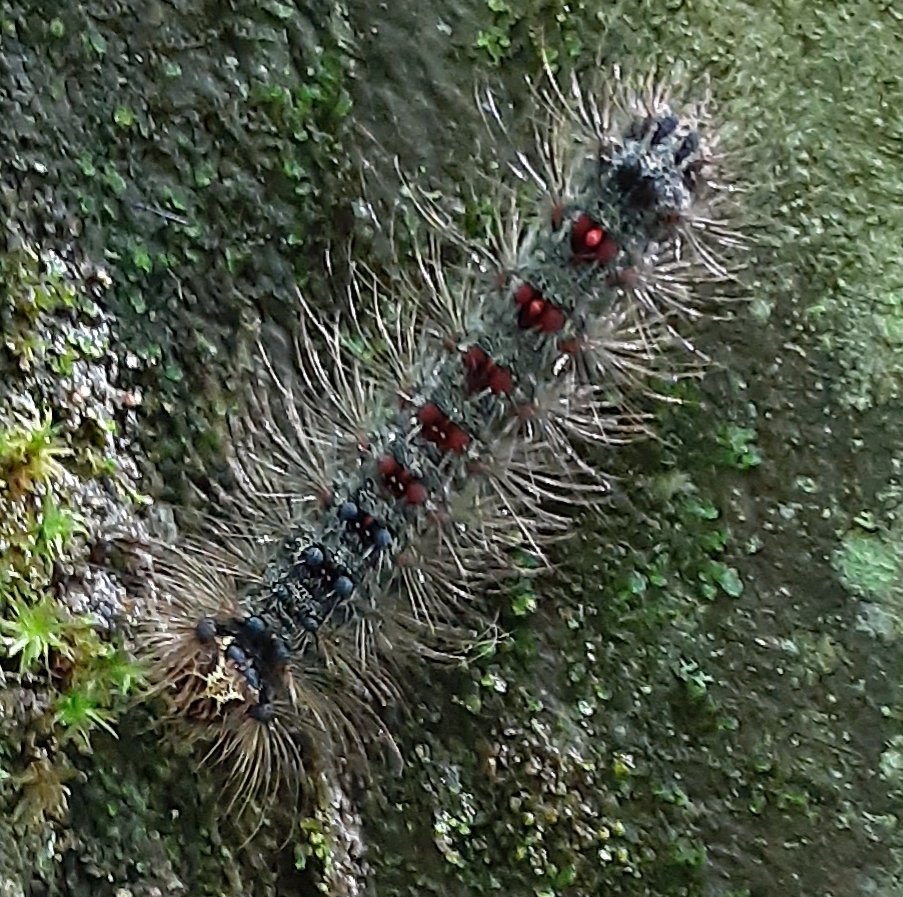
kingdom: Animalia
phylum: Arthropoda
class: Insecta
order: Lepidoptera
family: Erebidae
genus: Lymantria
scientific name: Lymantria dispar
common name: Gypsy moth
